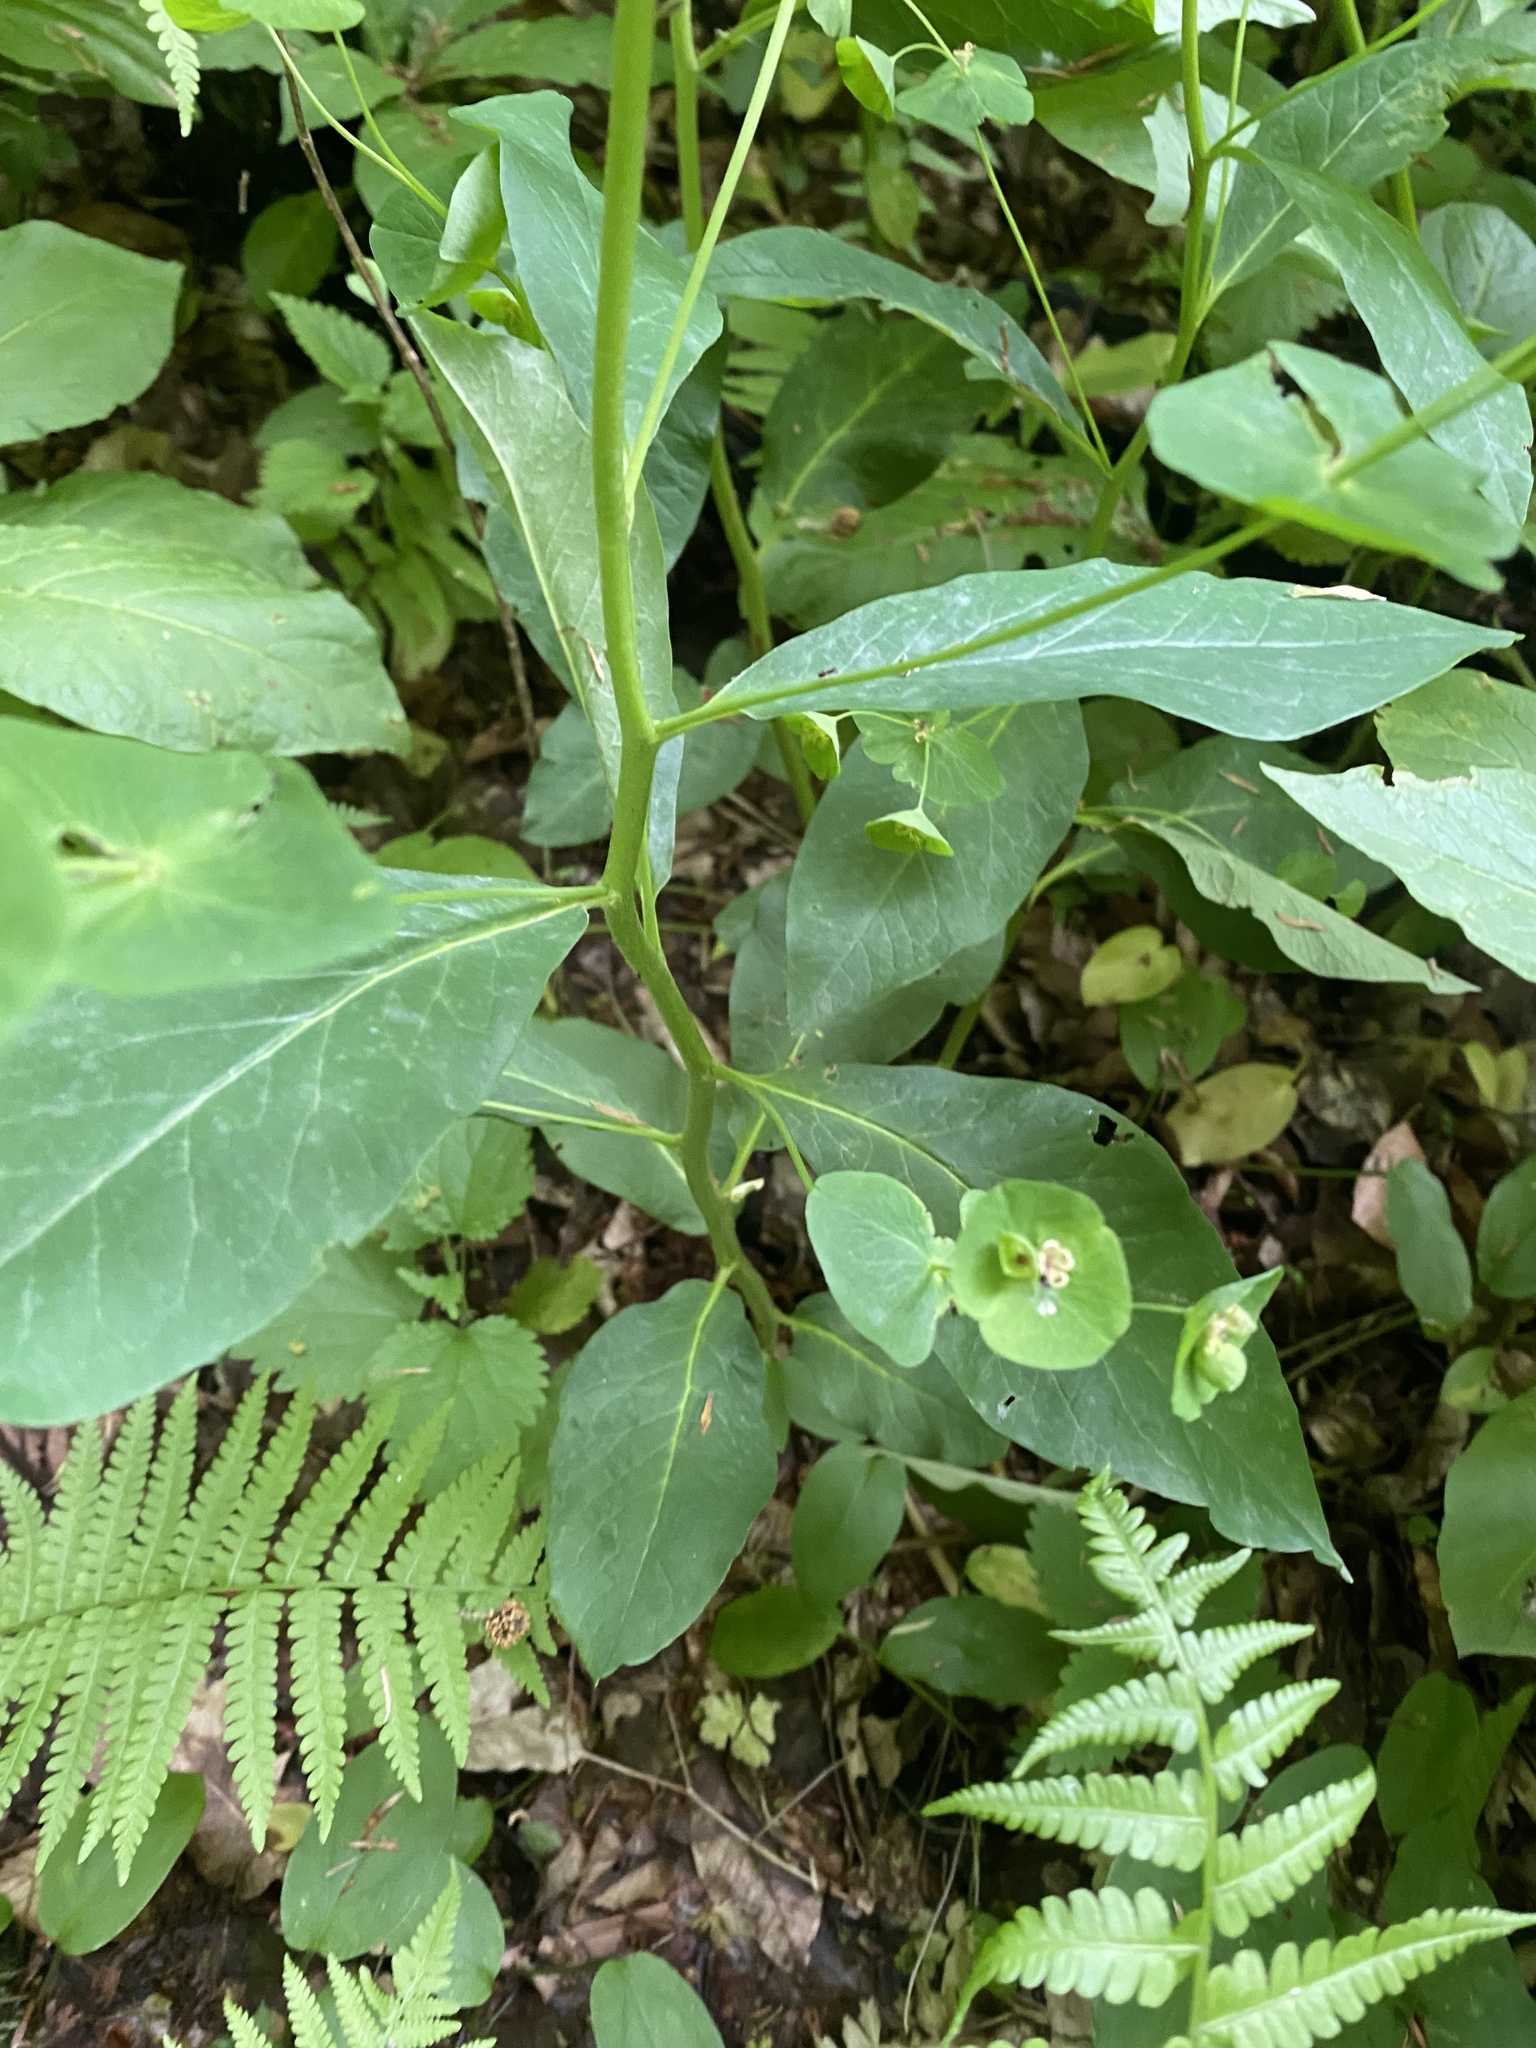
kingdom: Plantae
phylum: Tracheophyta
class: Magnoliopsida
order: Malpighiales
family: Euphorbiaceae
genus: Euphorbia
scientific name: Euphorbia squamosa
